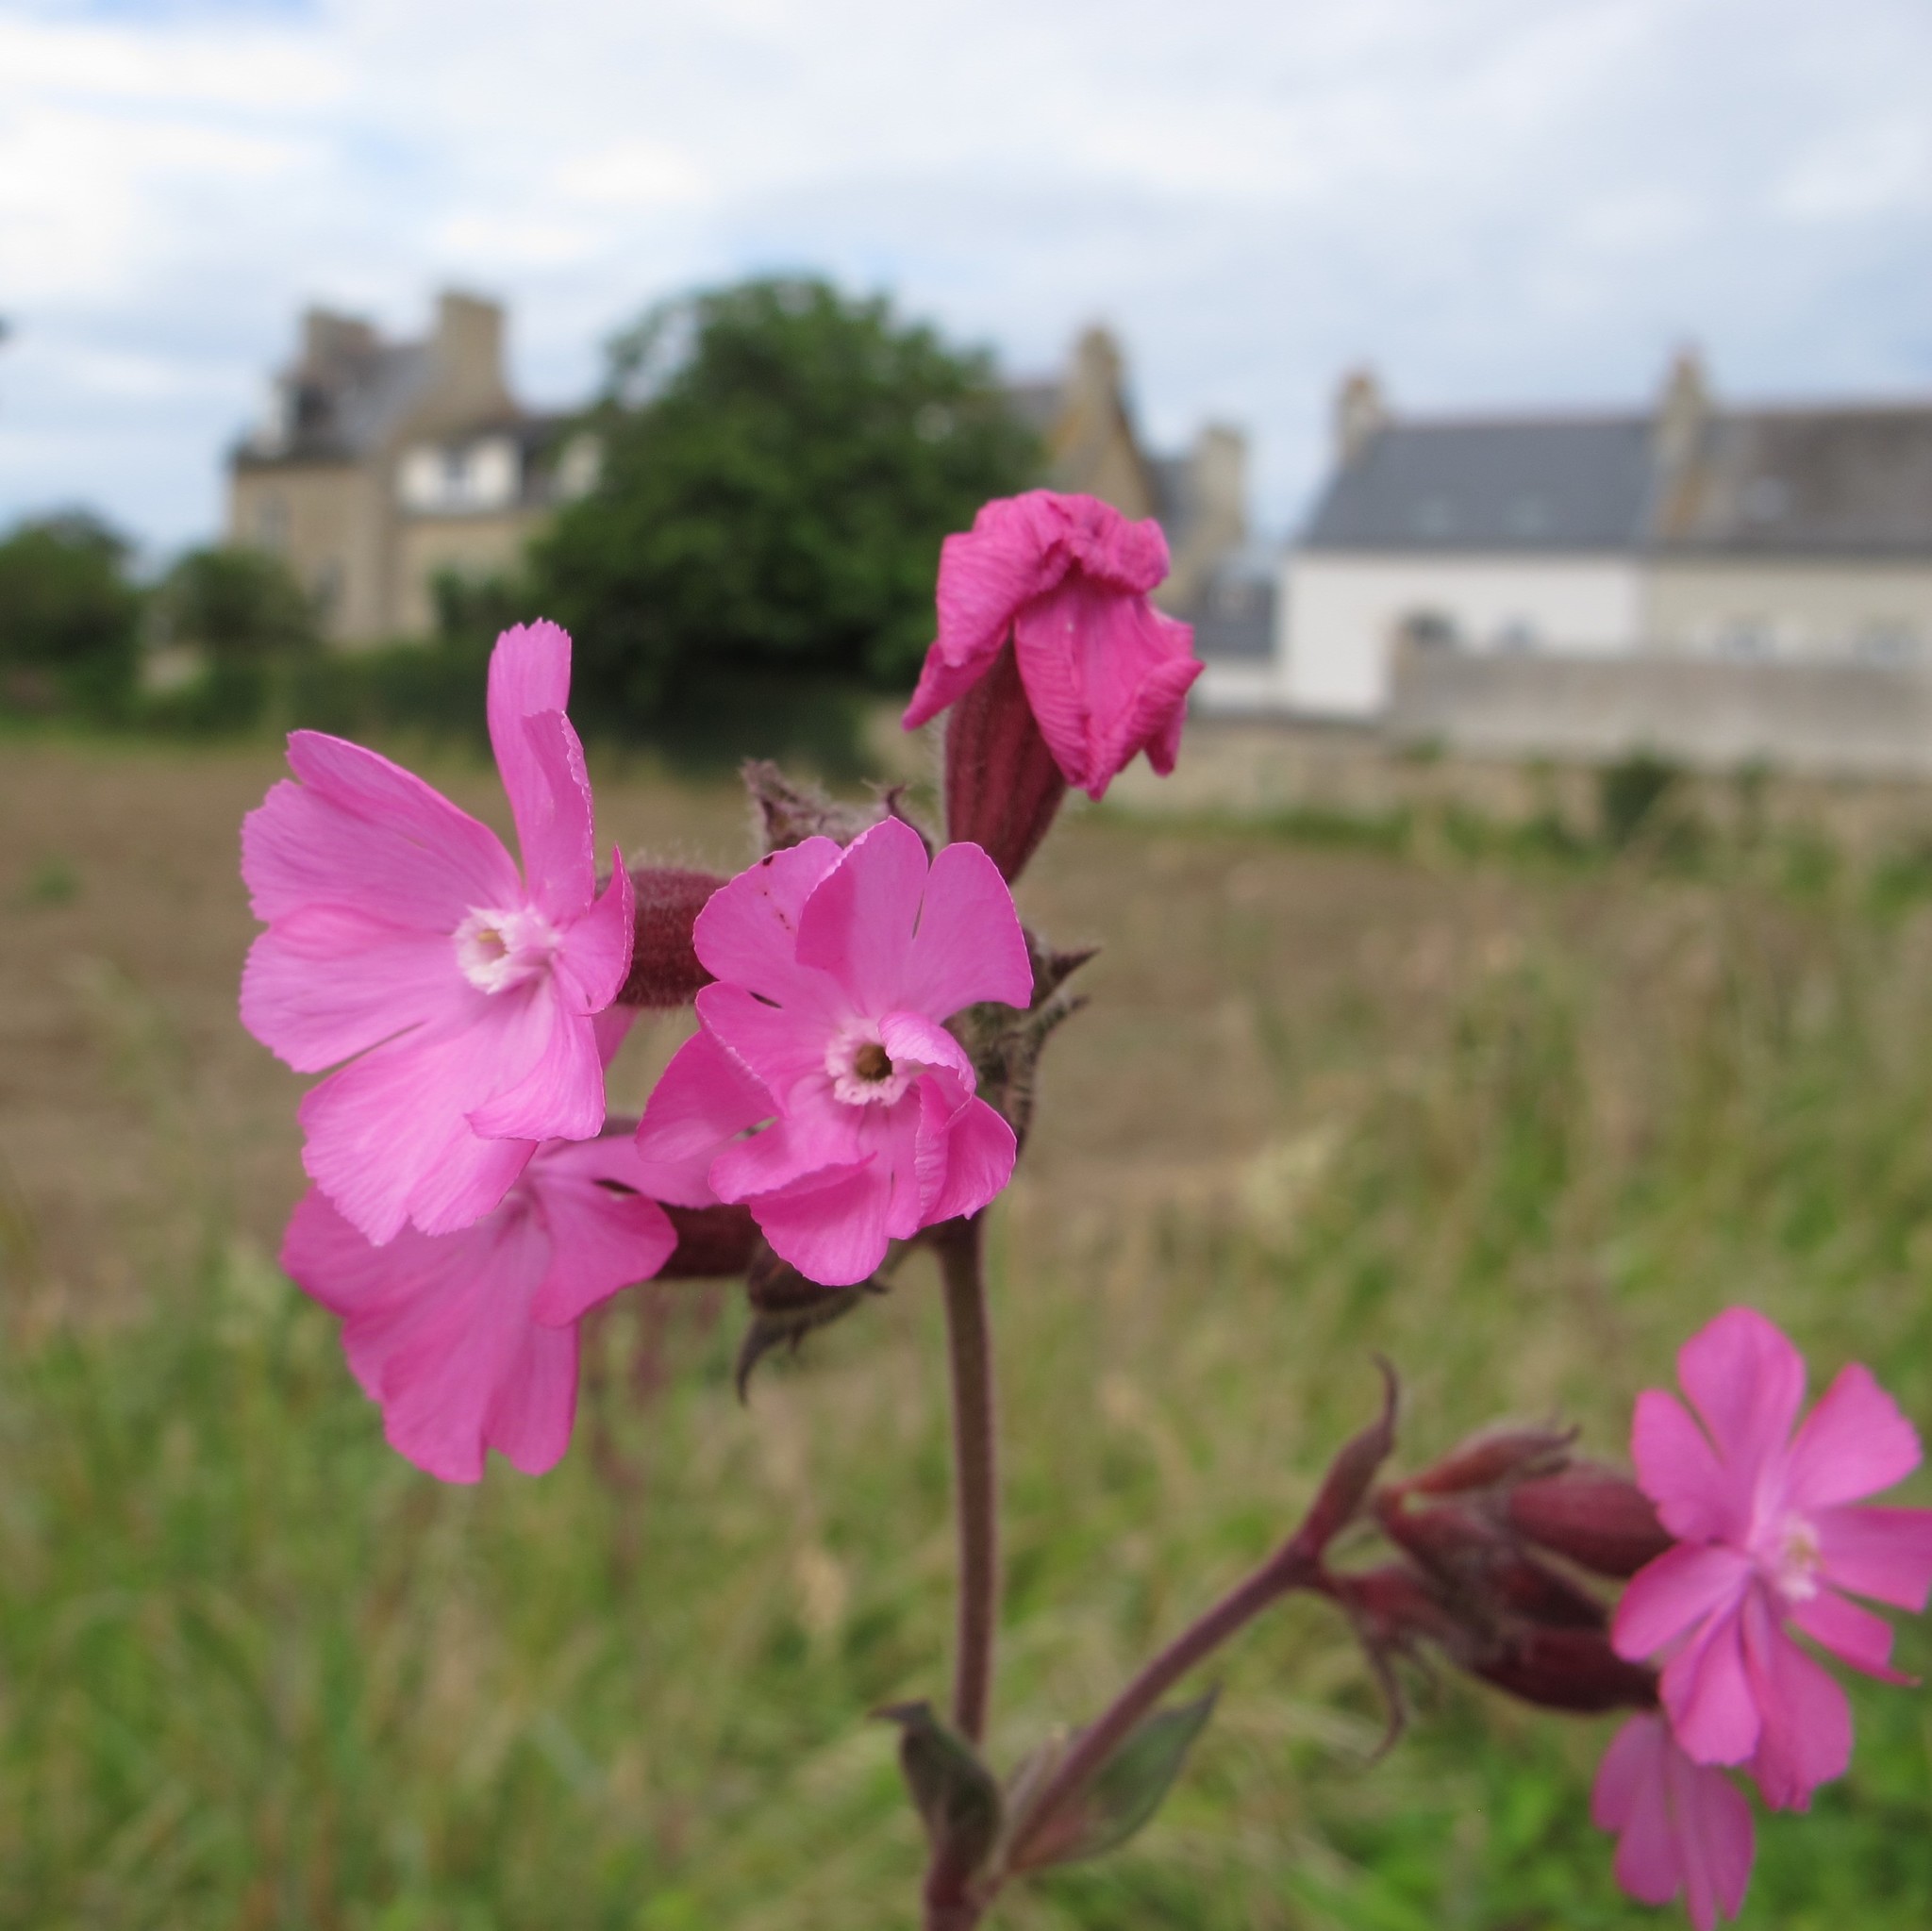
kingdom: Plantae
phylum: Tracheophyta
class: Magnoliopsida
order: Caryophyllales
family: Caryophyllaceae
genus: Silene
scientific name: Silene dioica
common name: Red campion
